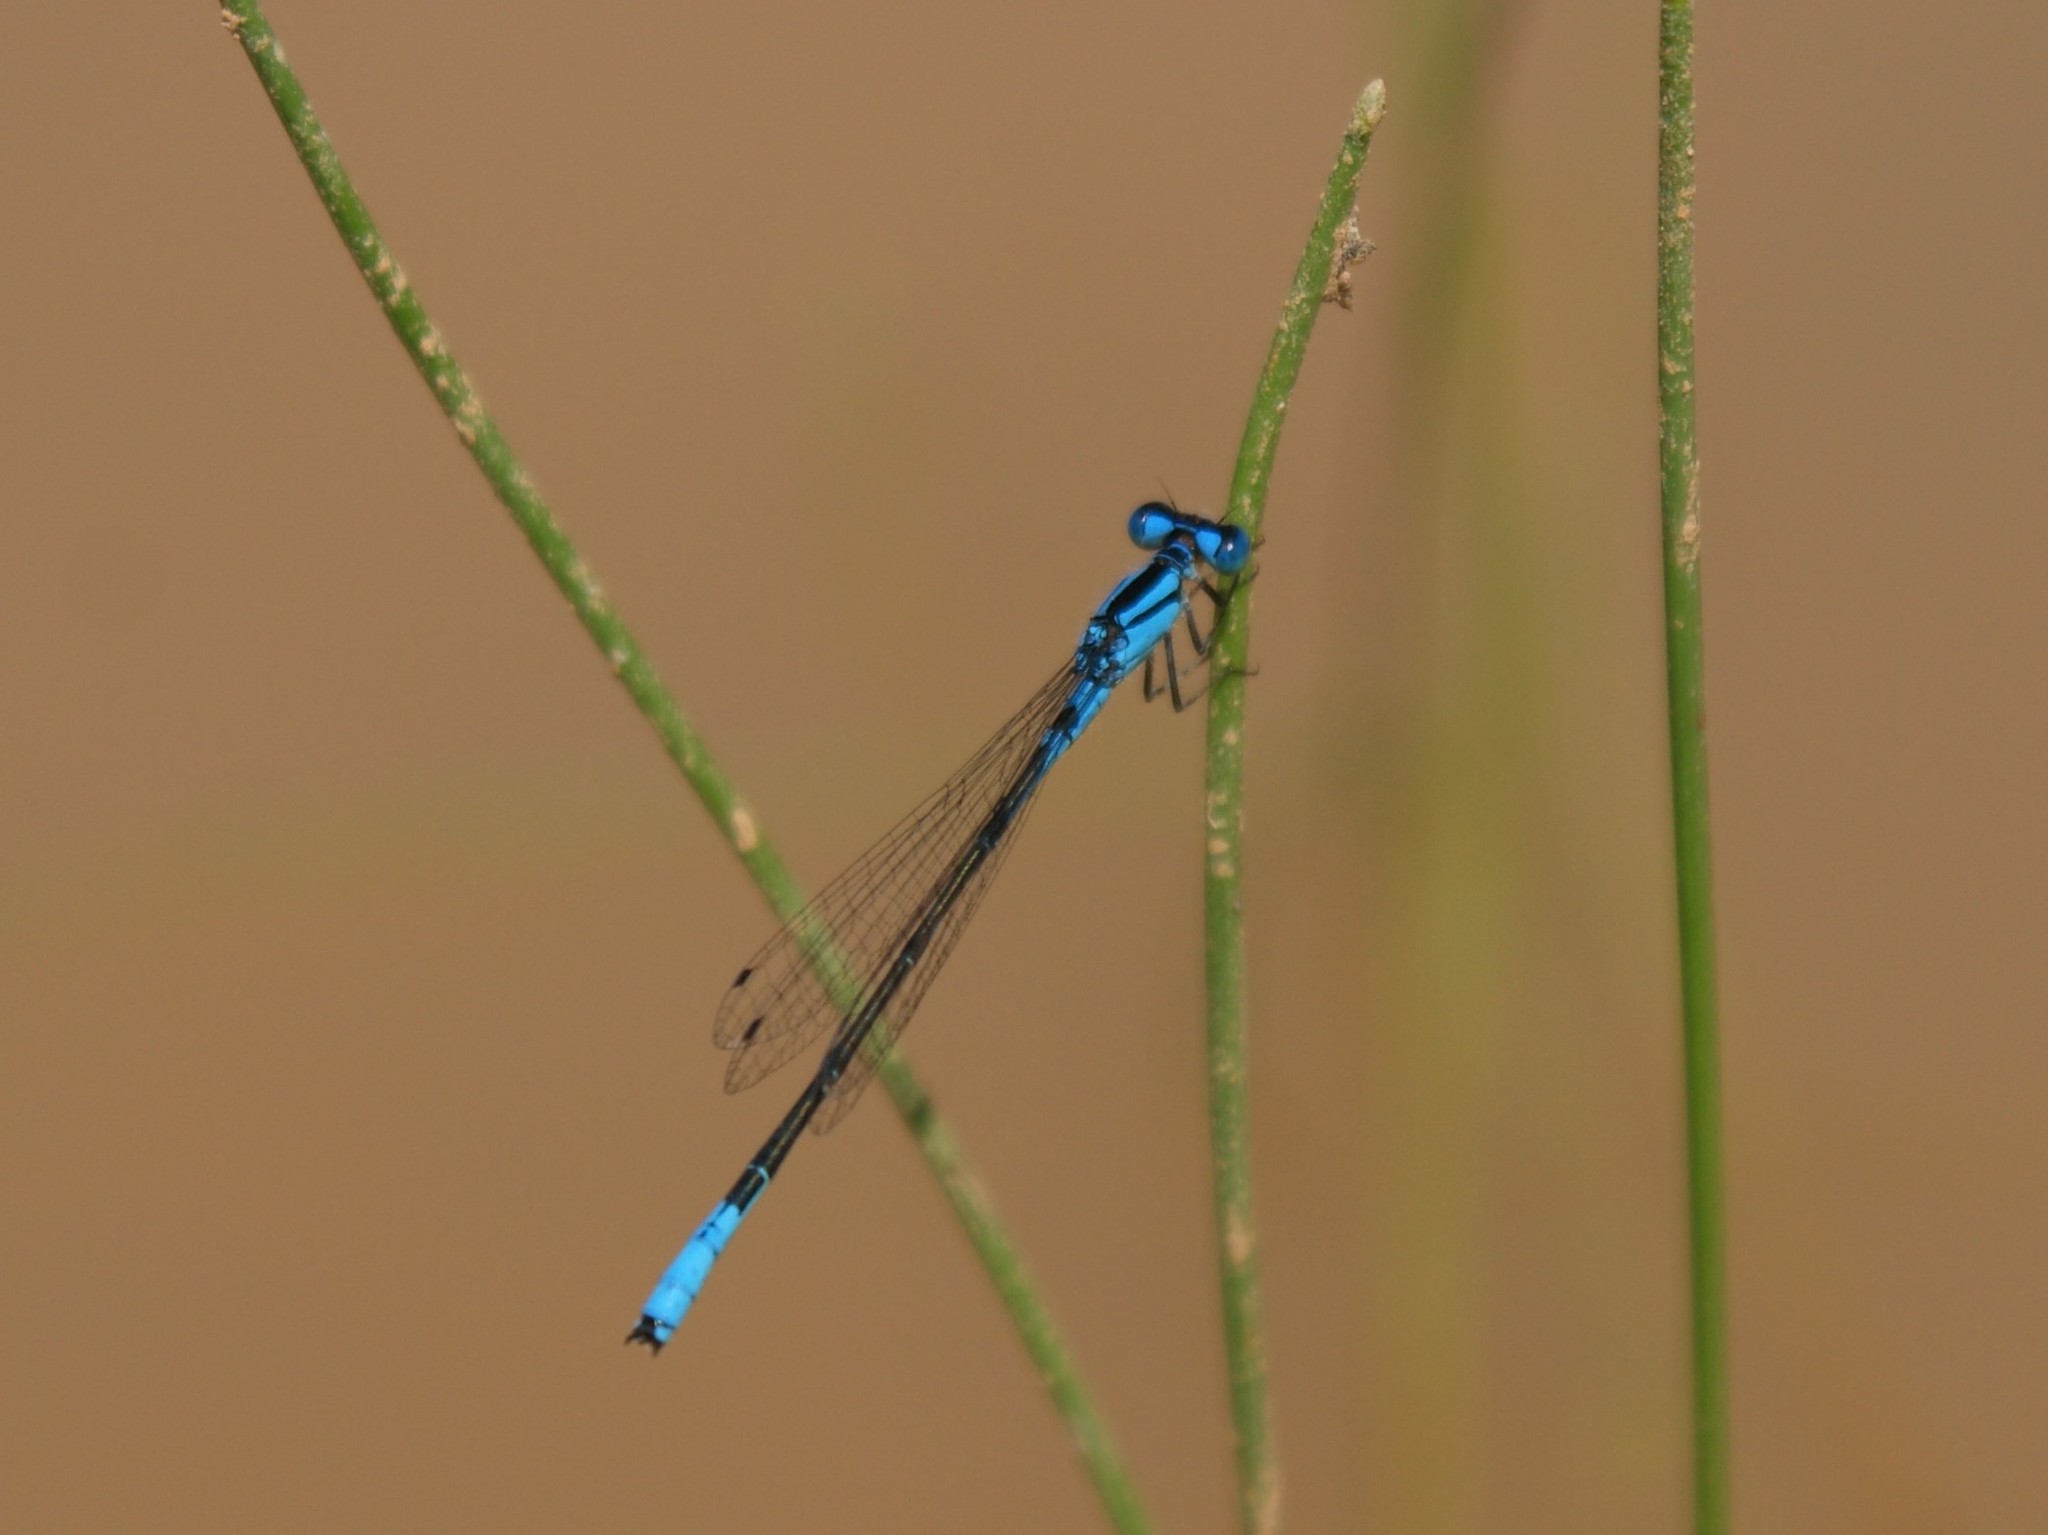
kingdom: Animalia
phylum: Arthropoda
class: Insecta
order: Odonata
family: Coenagrionidae
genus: Enallagma
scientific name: Enallagma aspersum
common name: Azure bluet
